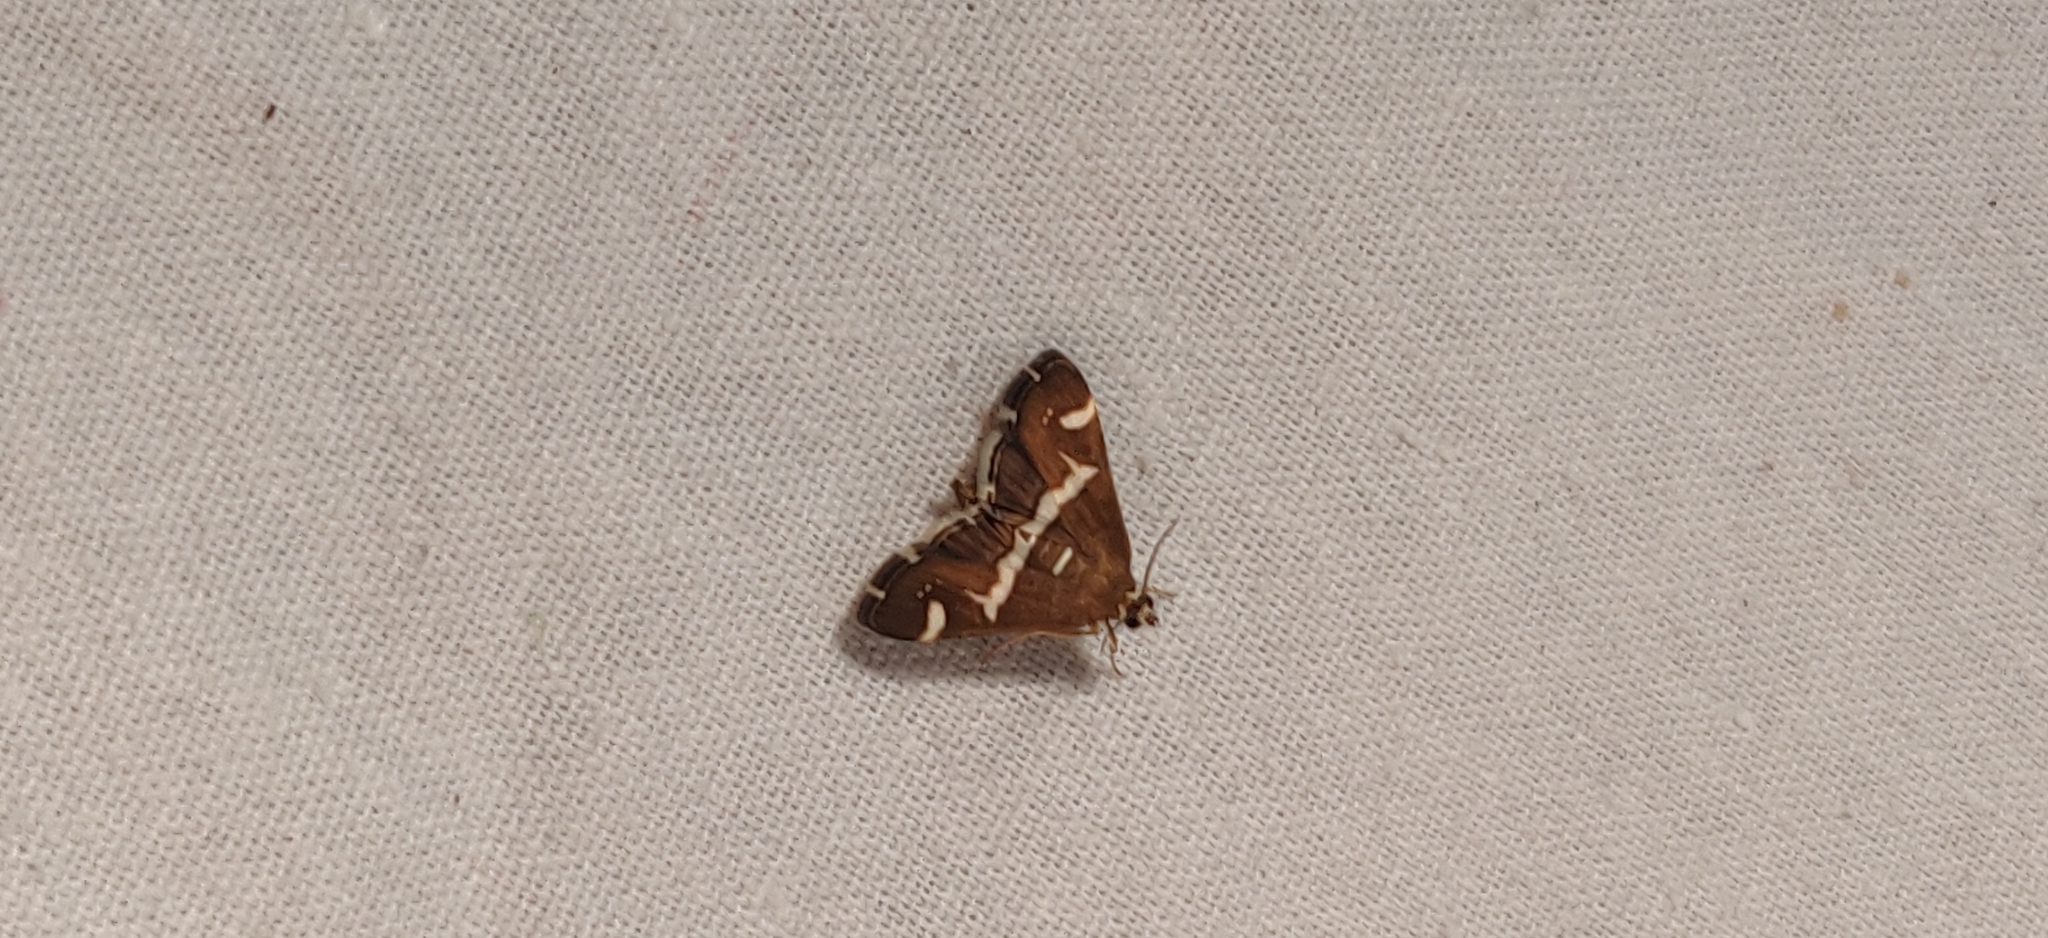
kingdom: Animalia
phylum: Arthropoda
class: Insecta
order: Lepidoptera
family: Crambidae
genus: Spoladea
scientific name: Spoladea recurvalis
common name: Beet webworm moth
